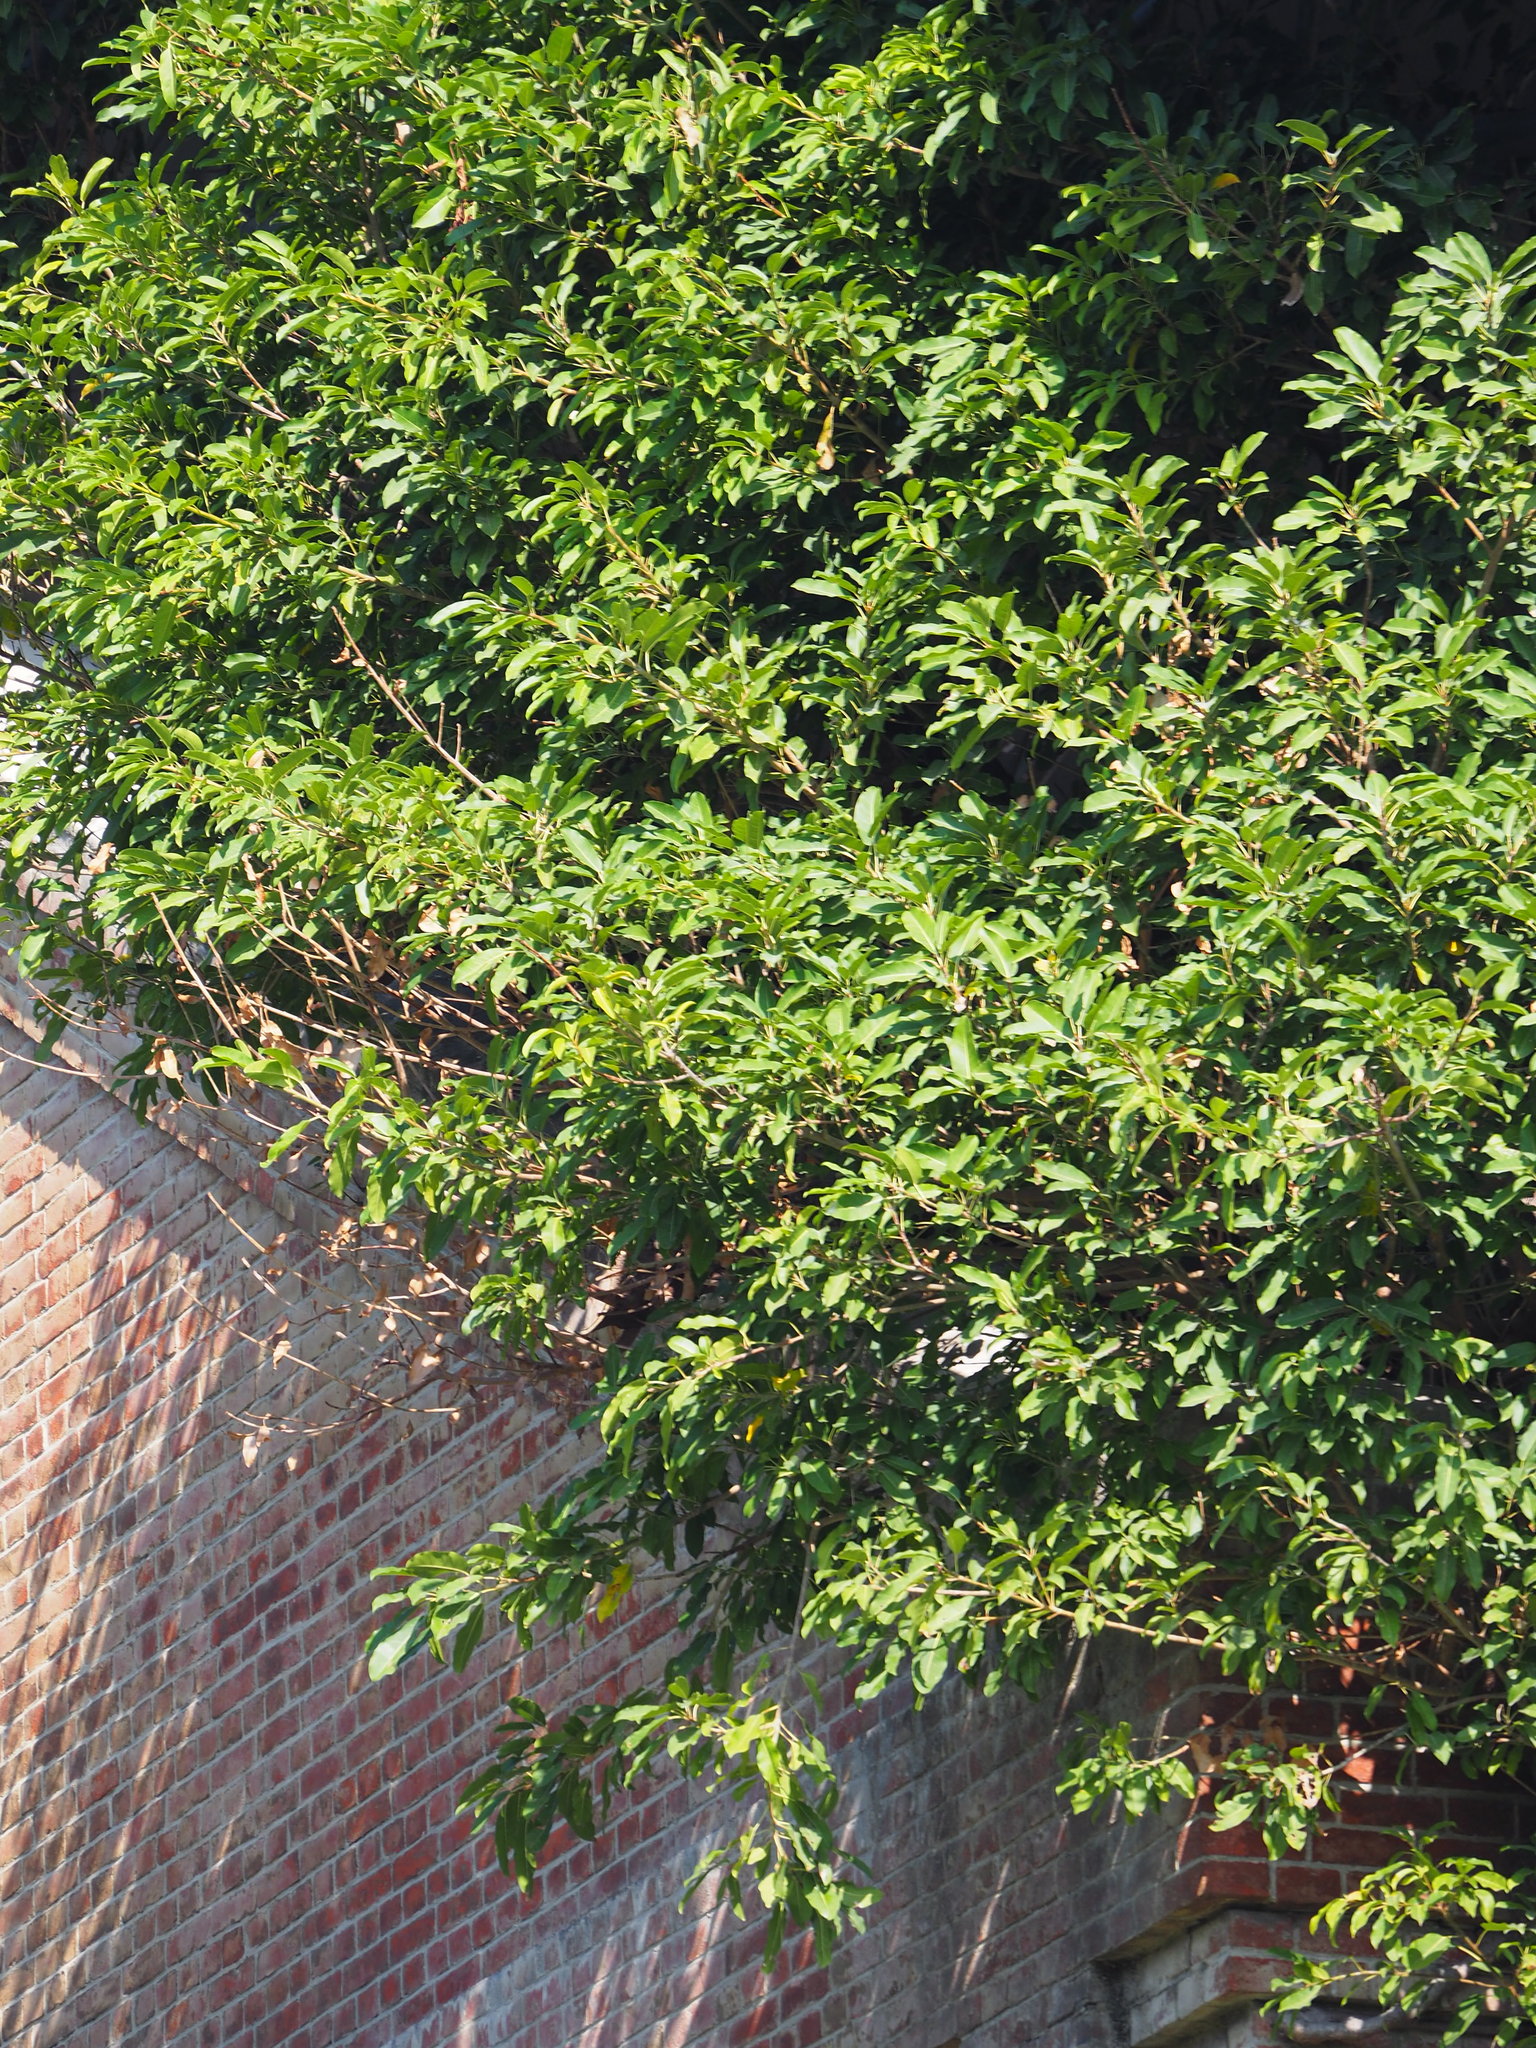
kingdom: Plantae
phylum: Tracheophyta
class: Magnoliopsida
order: Rosales
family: Moraceae
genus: Ficus
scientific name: Ficus subpisocarpa
